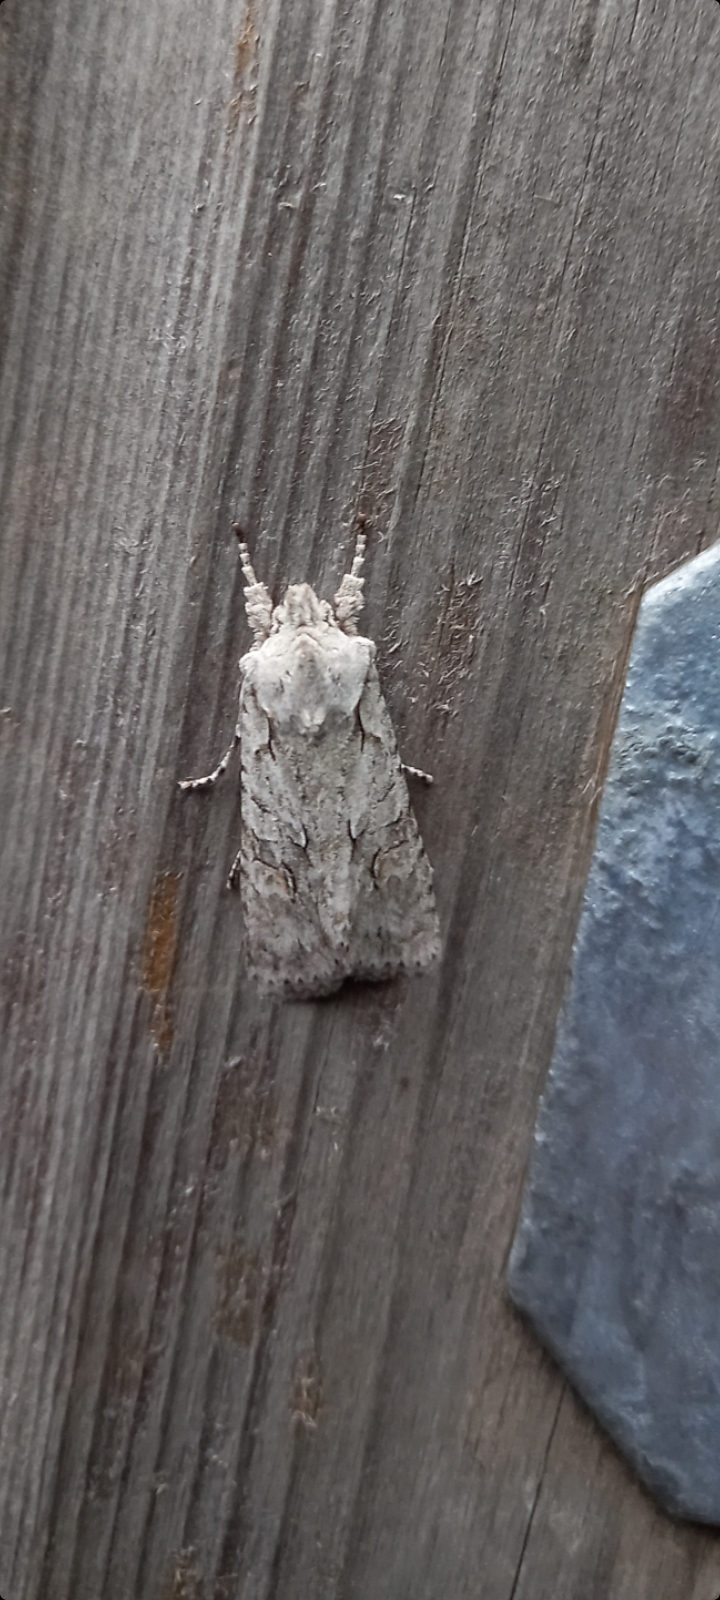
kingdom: Animalia
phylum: Arthropoda
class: Insecta
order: Lepidoptera
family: Noctuidae
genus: Lithophane
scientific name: Lithophane ornitopus
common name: Grey shoulder-knot
